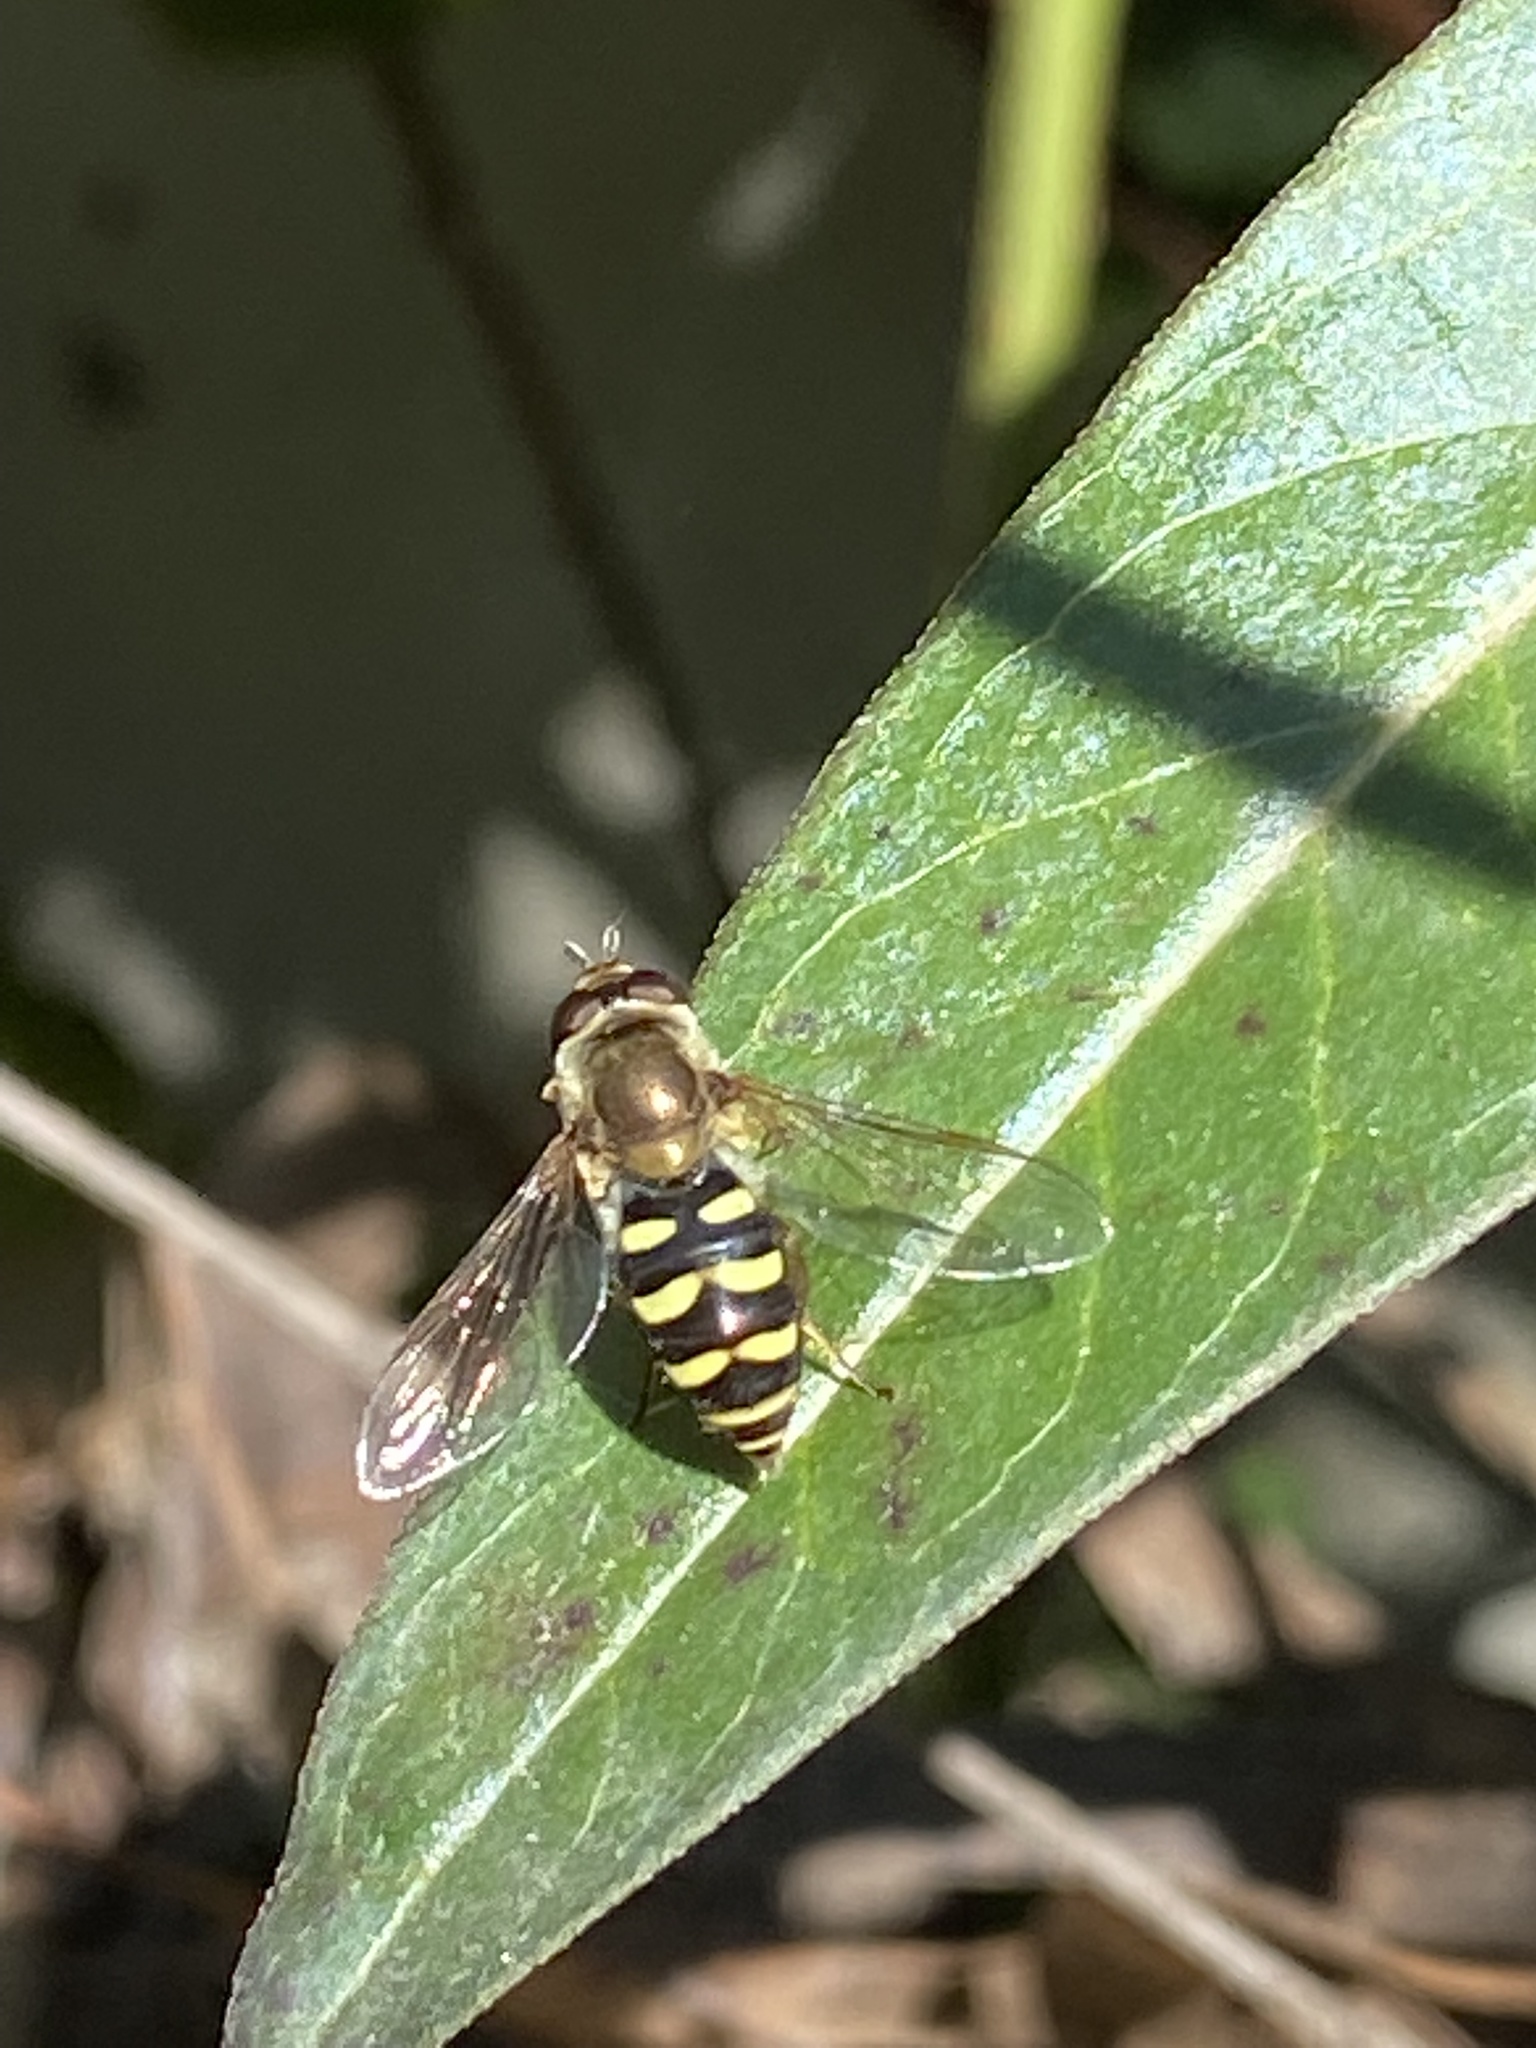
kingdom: Animalia
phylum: Arthropoda
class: Insecta
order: Diptera
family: Syrphidae
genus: Eupeodes
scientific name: Eupeodes fumipennis
